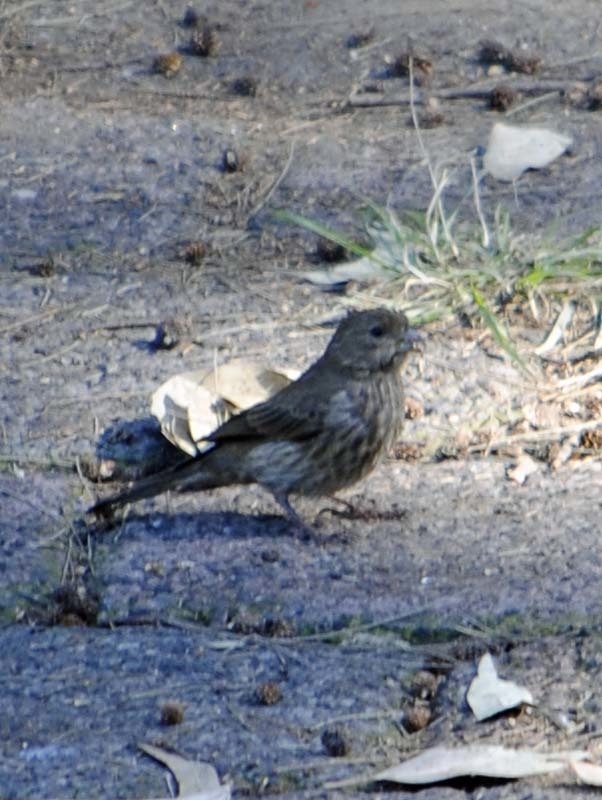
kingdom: Animalia
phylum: Chordata
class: Aves
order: Passeriformes
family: Fringillidae
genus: Haemorhous
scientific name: Haemorhous mexicanus
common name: House finch
